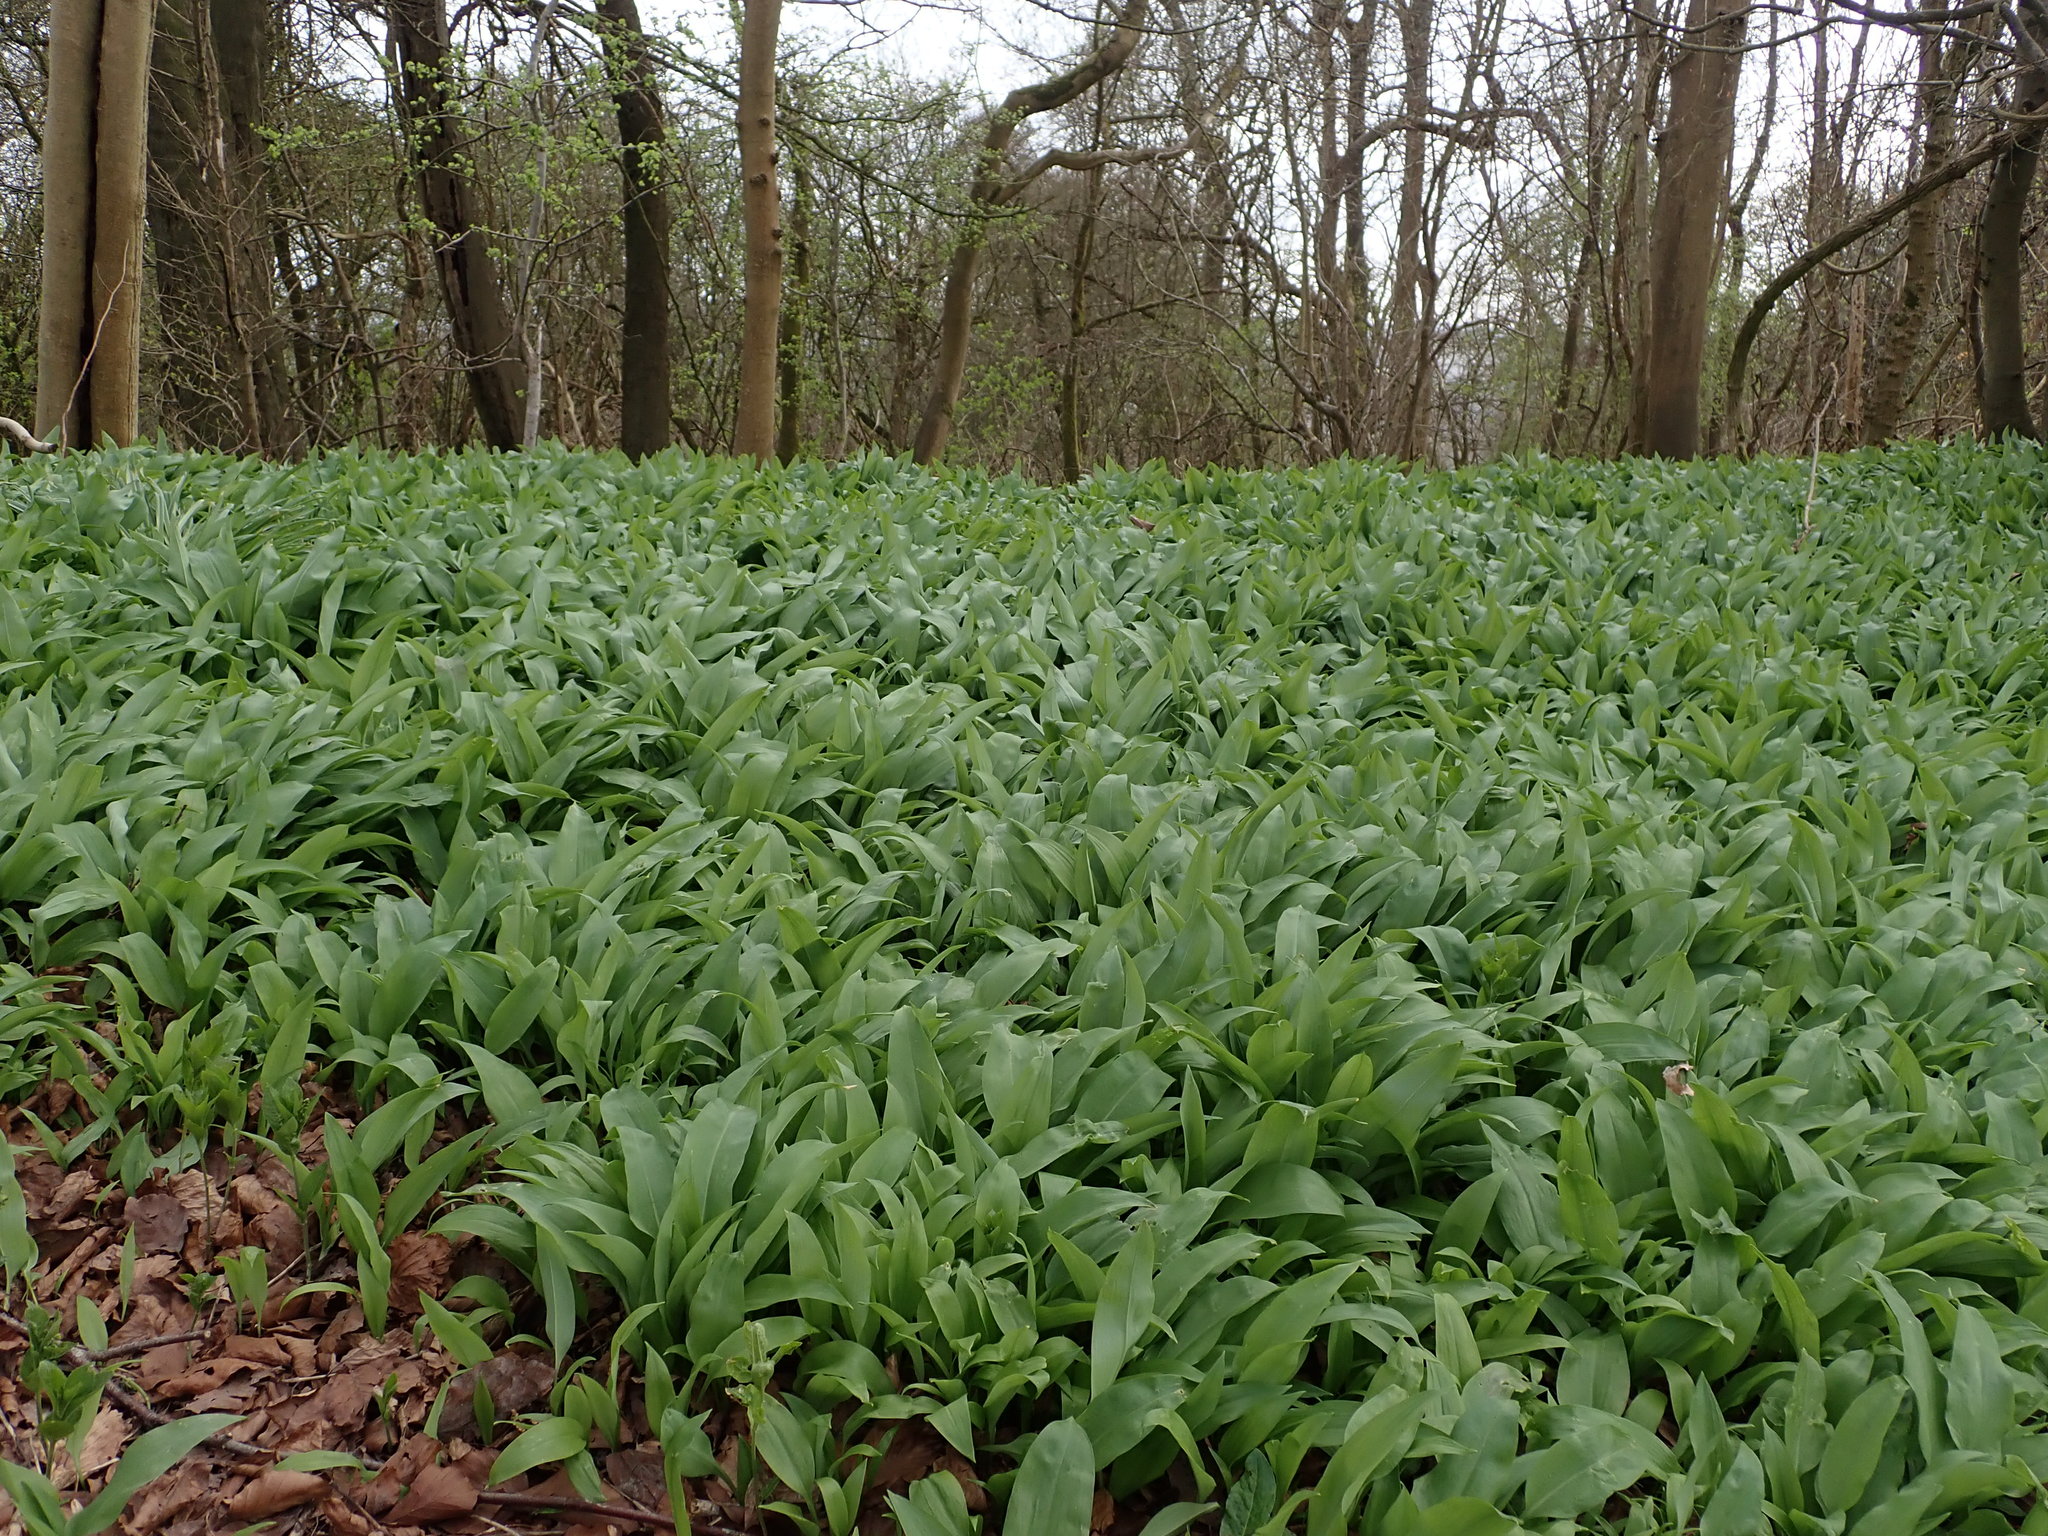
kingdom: Plantae
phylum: Tracheophyta
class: Liliopsida
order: Asparagales
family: Amaryllidaceae
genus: Allium
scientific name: Allium ursinum
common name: Ramsons
